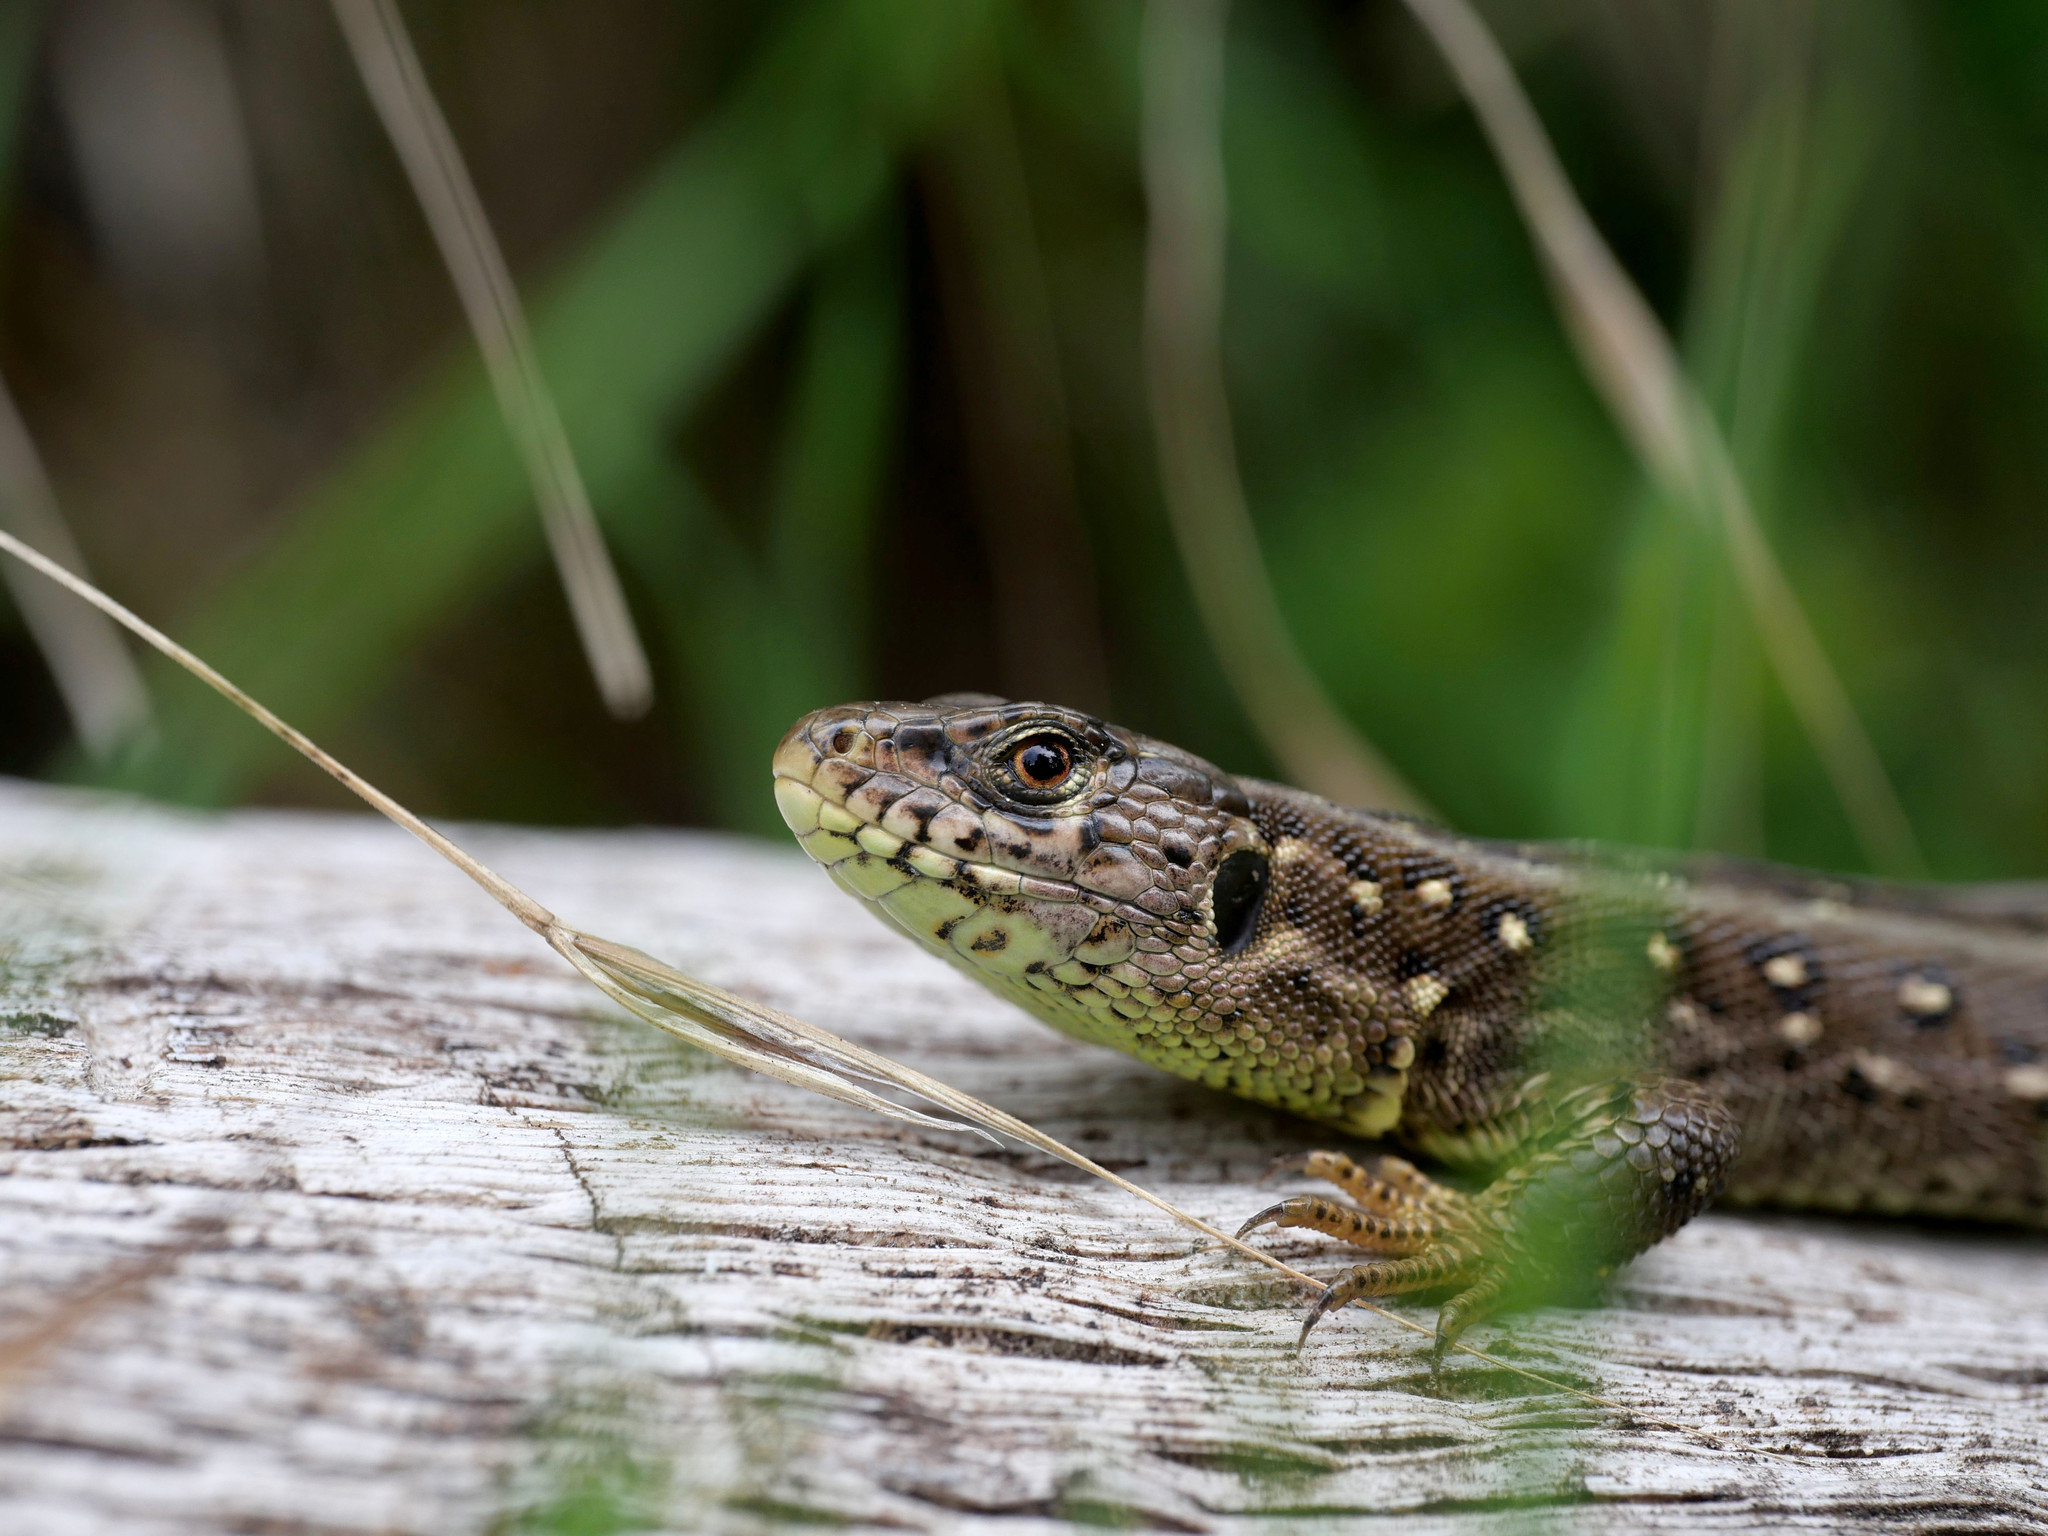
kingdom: Animalia
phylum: Chordata
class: Squamata
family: Lacertidae
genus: Lacerta
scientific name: Lacerta agilis
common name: Sand lizard
